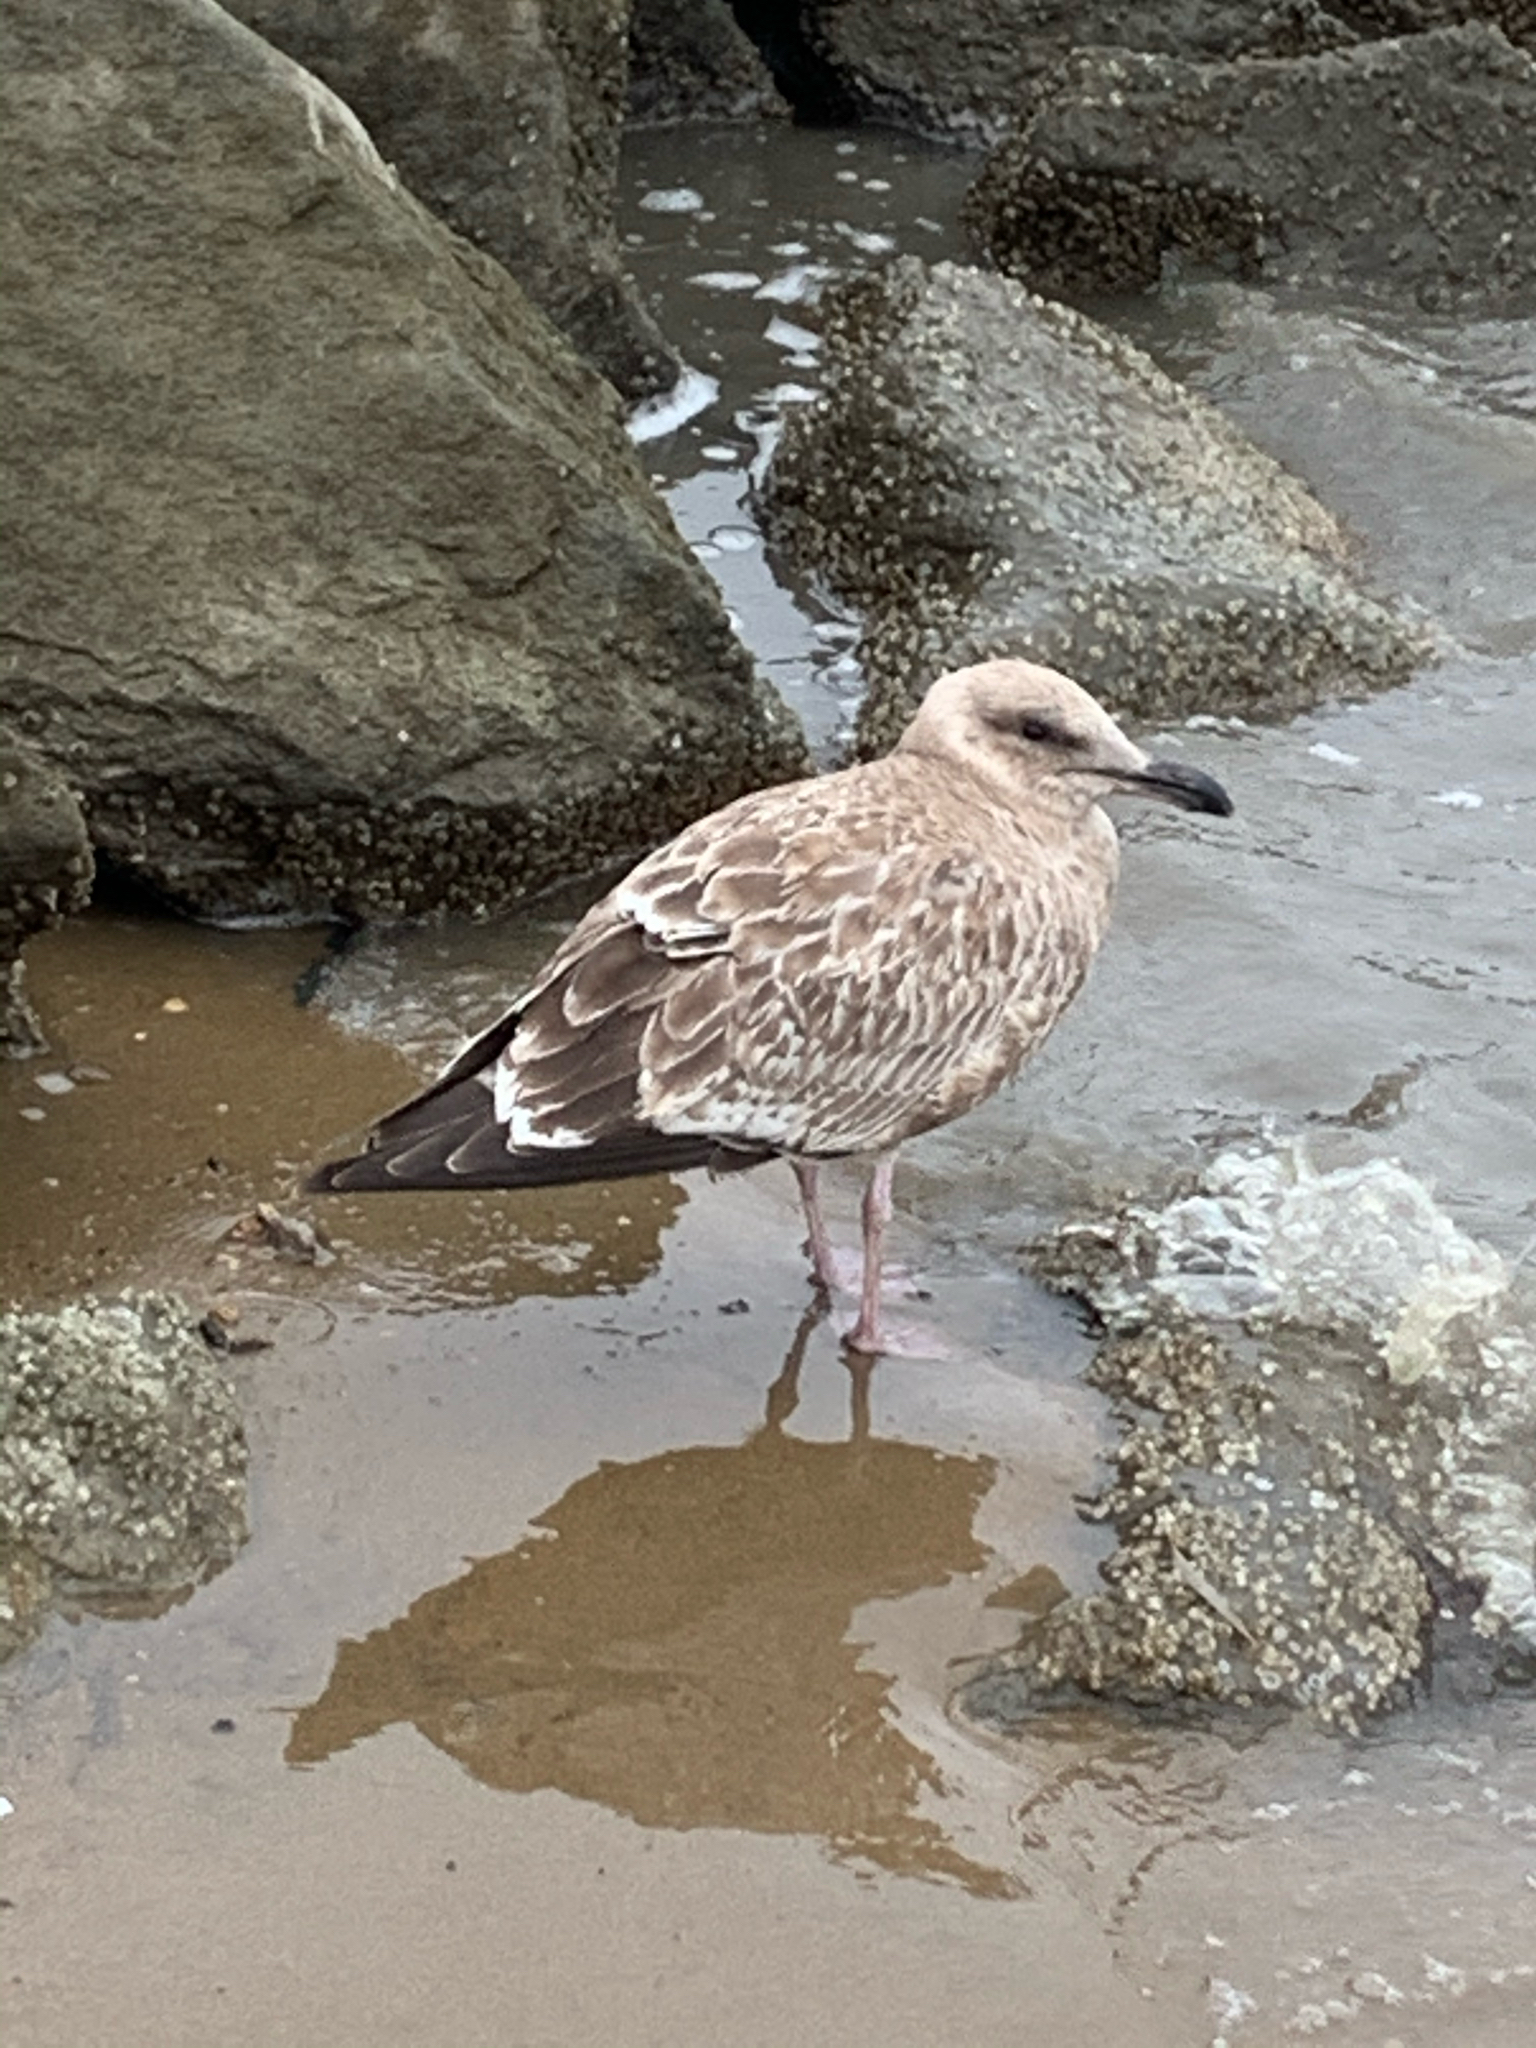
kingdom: Animalia
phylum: Chordata
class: Aves
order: Charadriiformes
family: Laridae
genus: Larus
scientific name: Larus argentatus
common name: Herring gull
